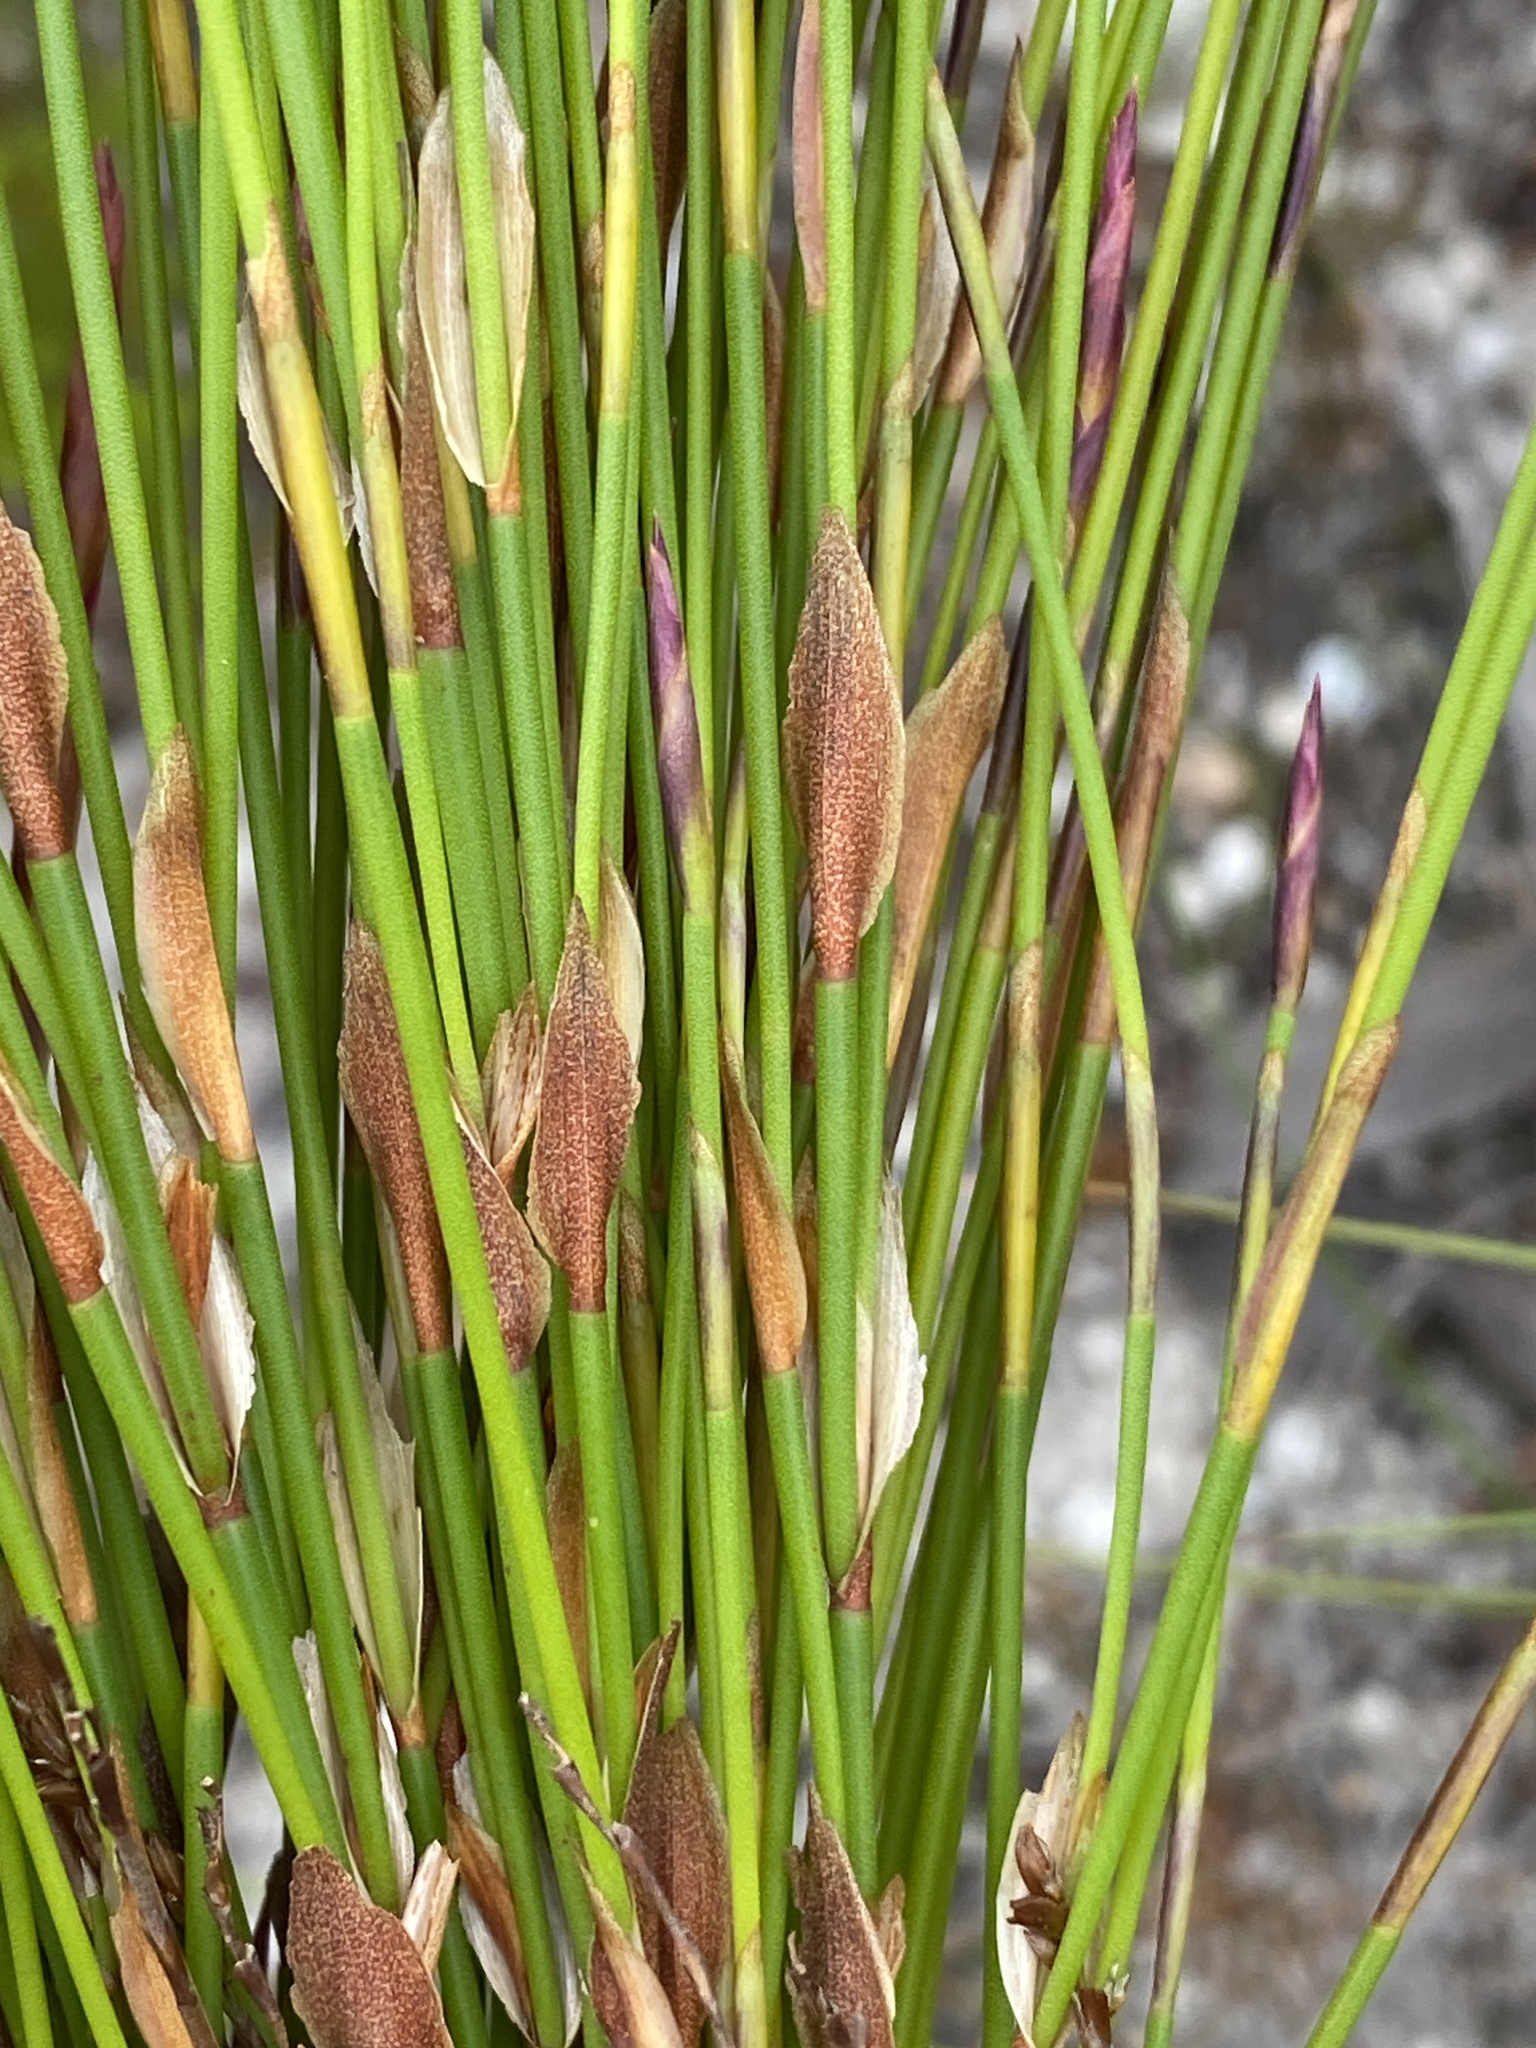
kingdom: Plantae
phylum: Tracheophyta
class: Liliopsida
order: Poales
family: Restionaceae
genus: Elegia
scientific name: Elegia stipularis
